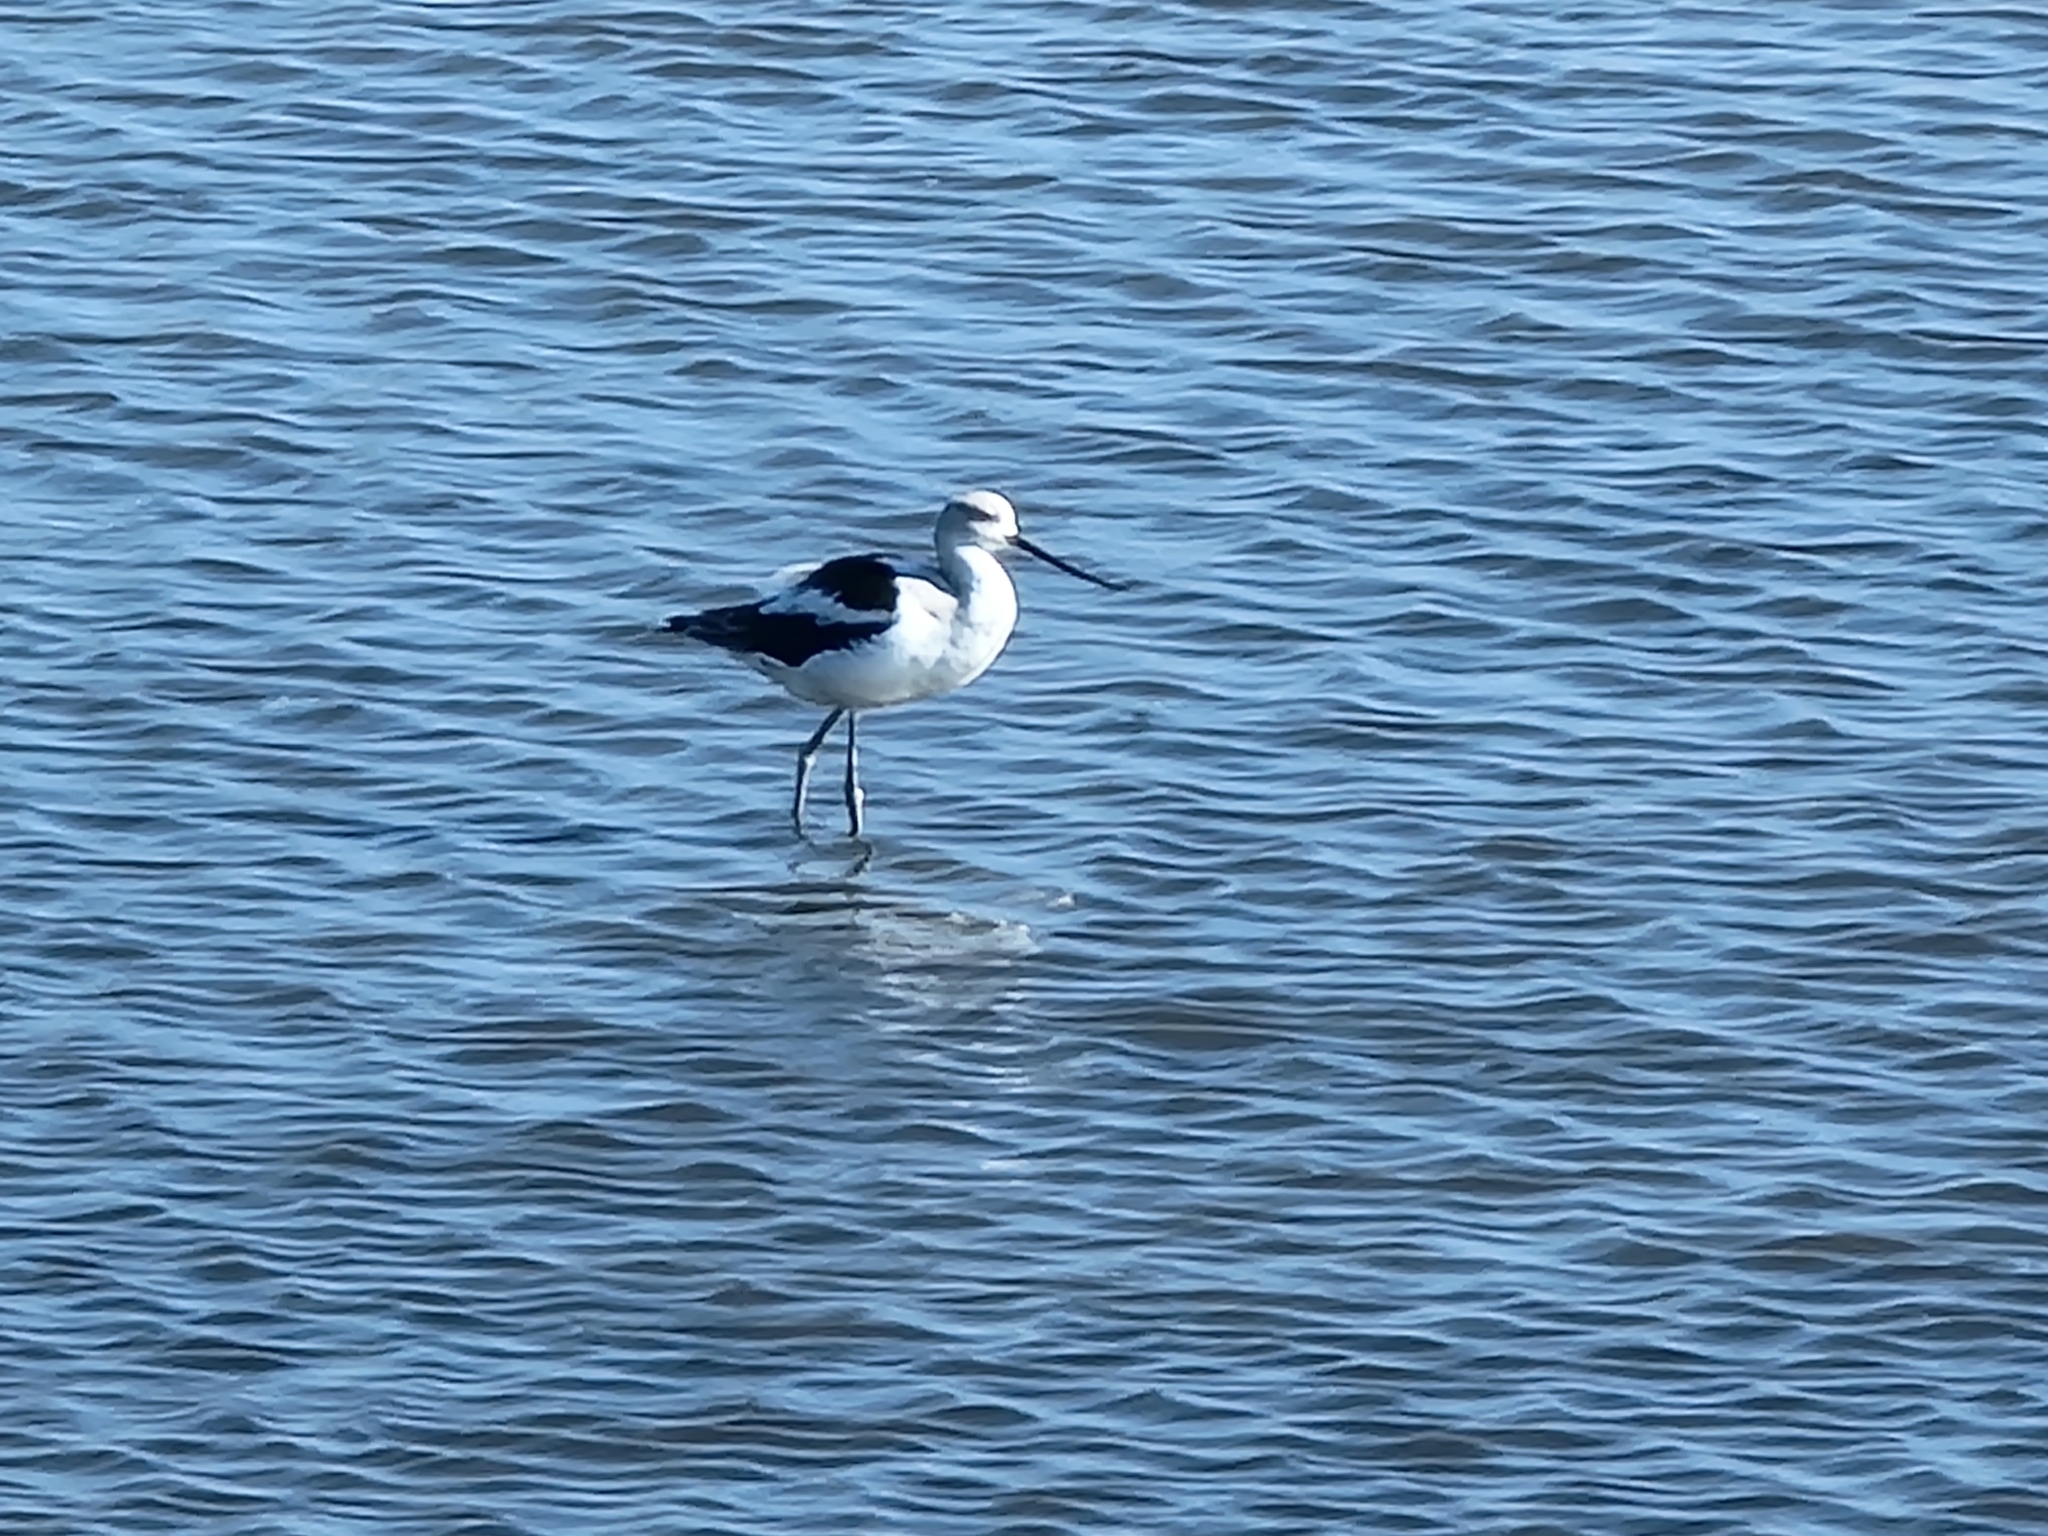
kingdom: Animalia
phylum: Chordata
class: Aves
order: Charadriiformes
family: Recurvirostridae
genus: Recurvirostra
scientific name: Recurvirostra americana
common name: American avocet
